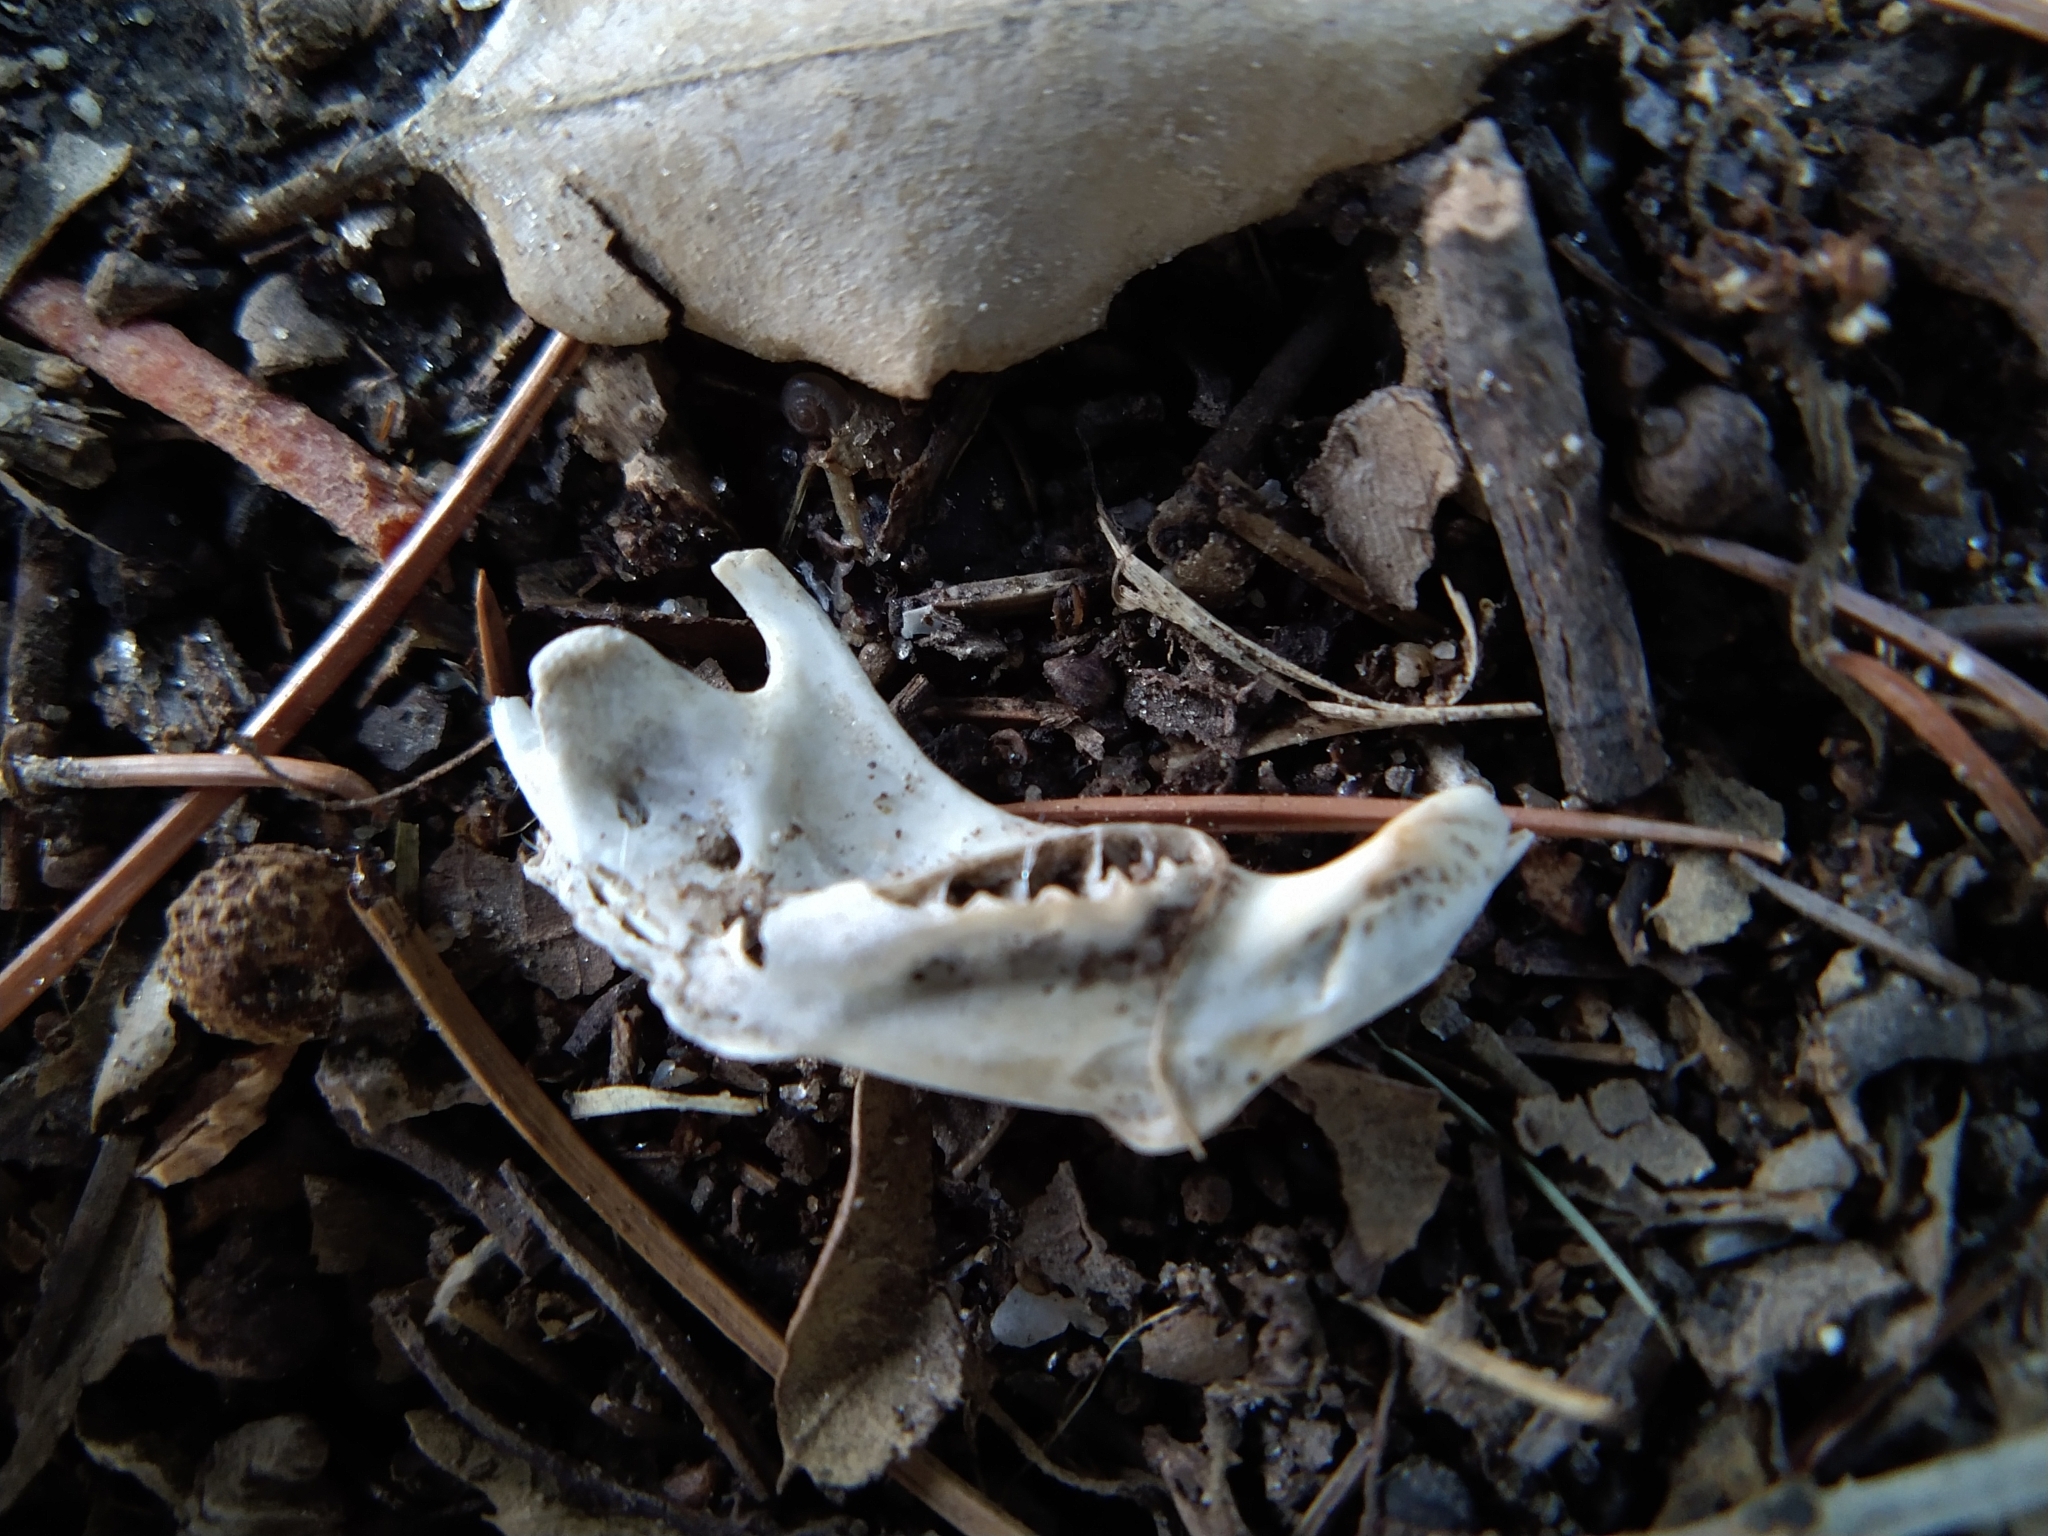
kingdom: Animalia
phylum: Chordata
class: Mammalia
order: Rodentia
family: Geomyidae
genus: Thomomys
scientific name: Thomomys bottae
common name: Botta's pocket gopher
